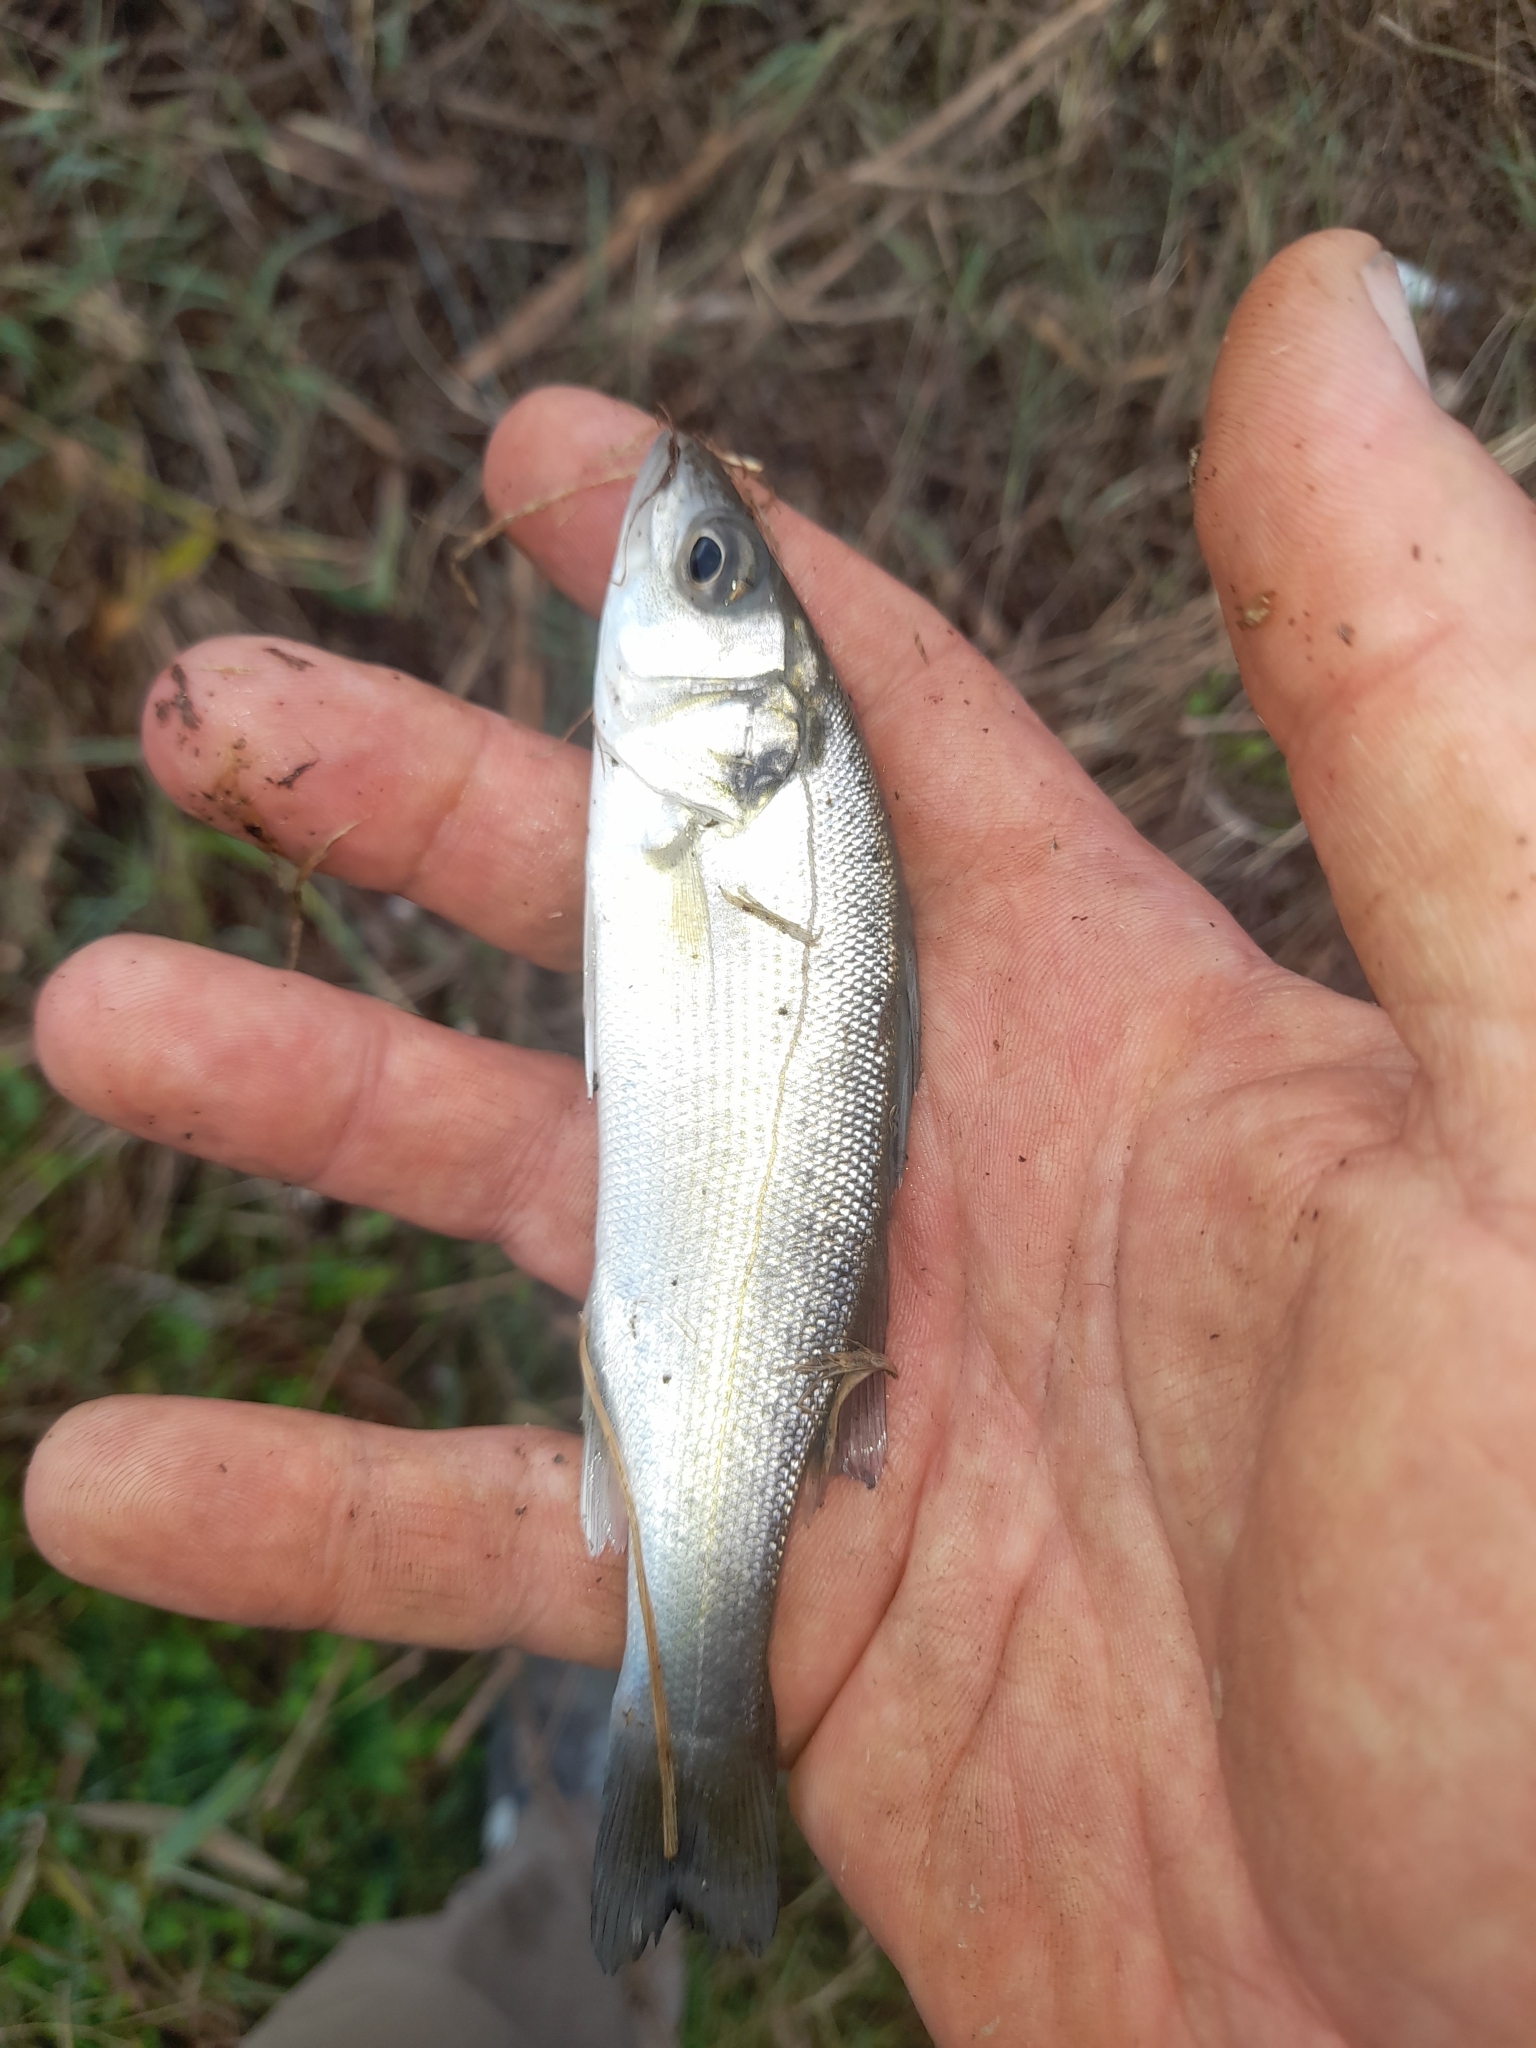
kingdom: Animalia
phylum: Chordata
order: Perciformes
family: Moronidae
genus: Dicentrarchus
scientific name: Dicentrarchus labrax
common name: European seabass
